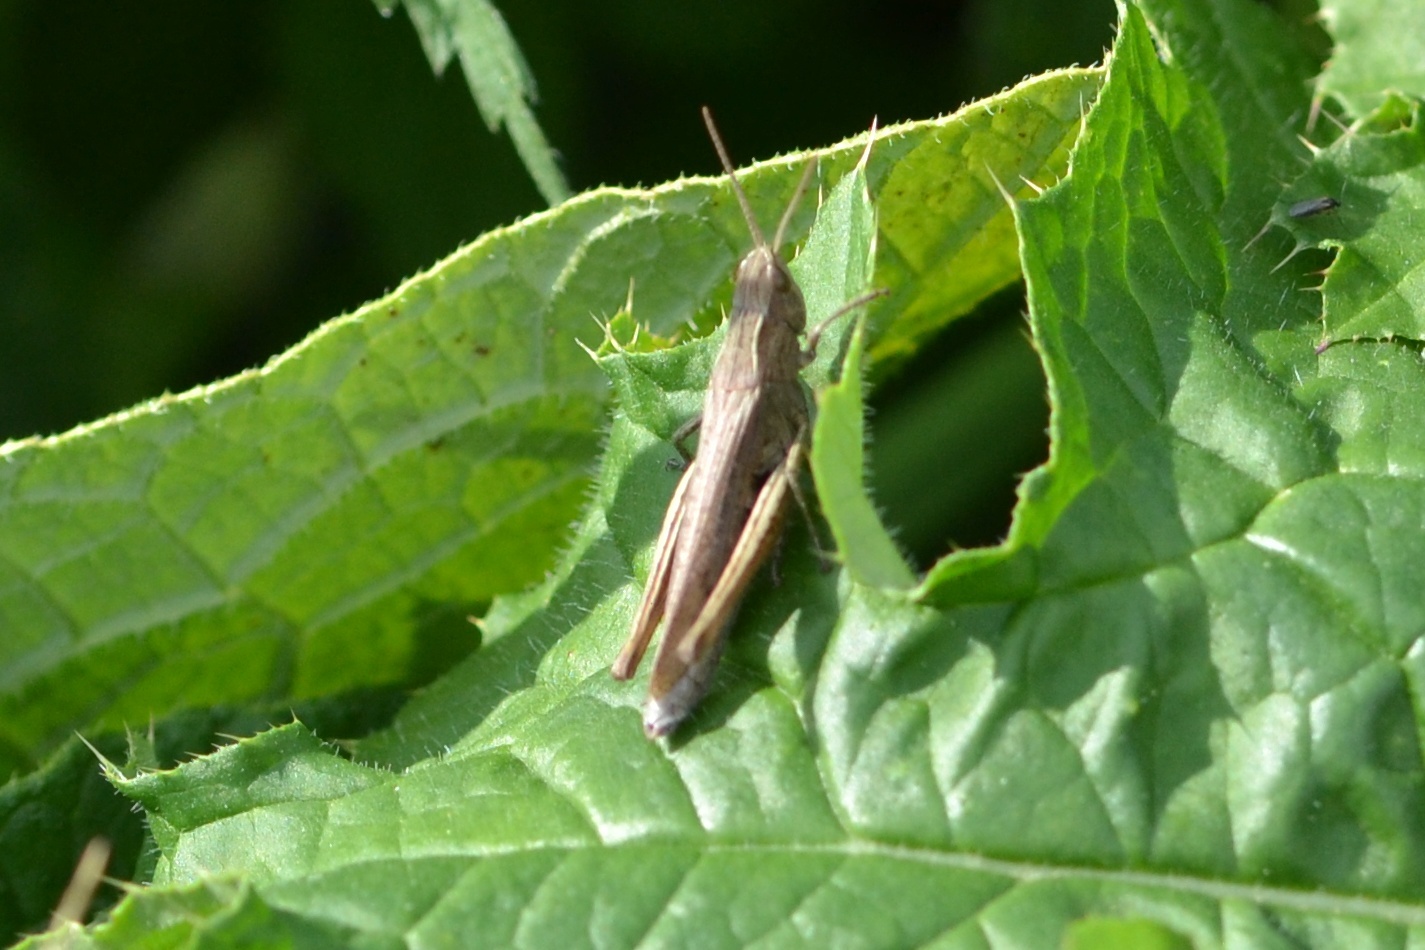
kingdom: Animalia
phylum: Arthropoda
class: Insecta
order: Orthoptera
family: Acrididae
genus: Chorthippus
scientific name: Chorthippus dorsatus
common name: Steppe grasshopper
